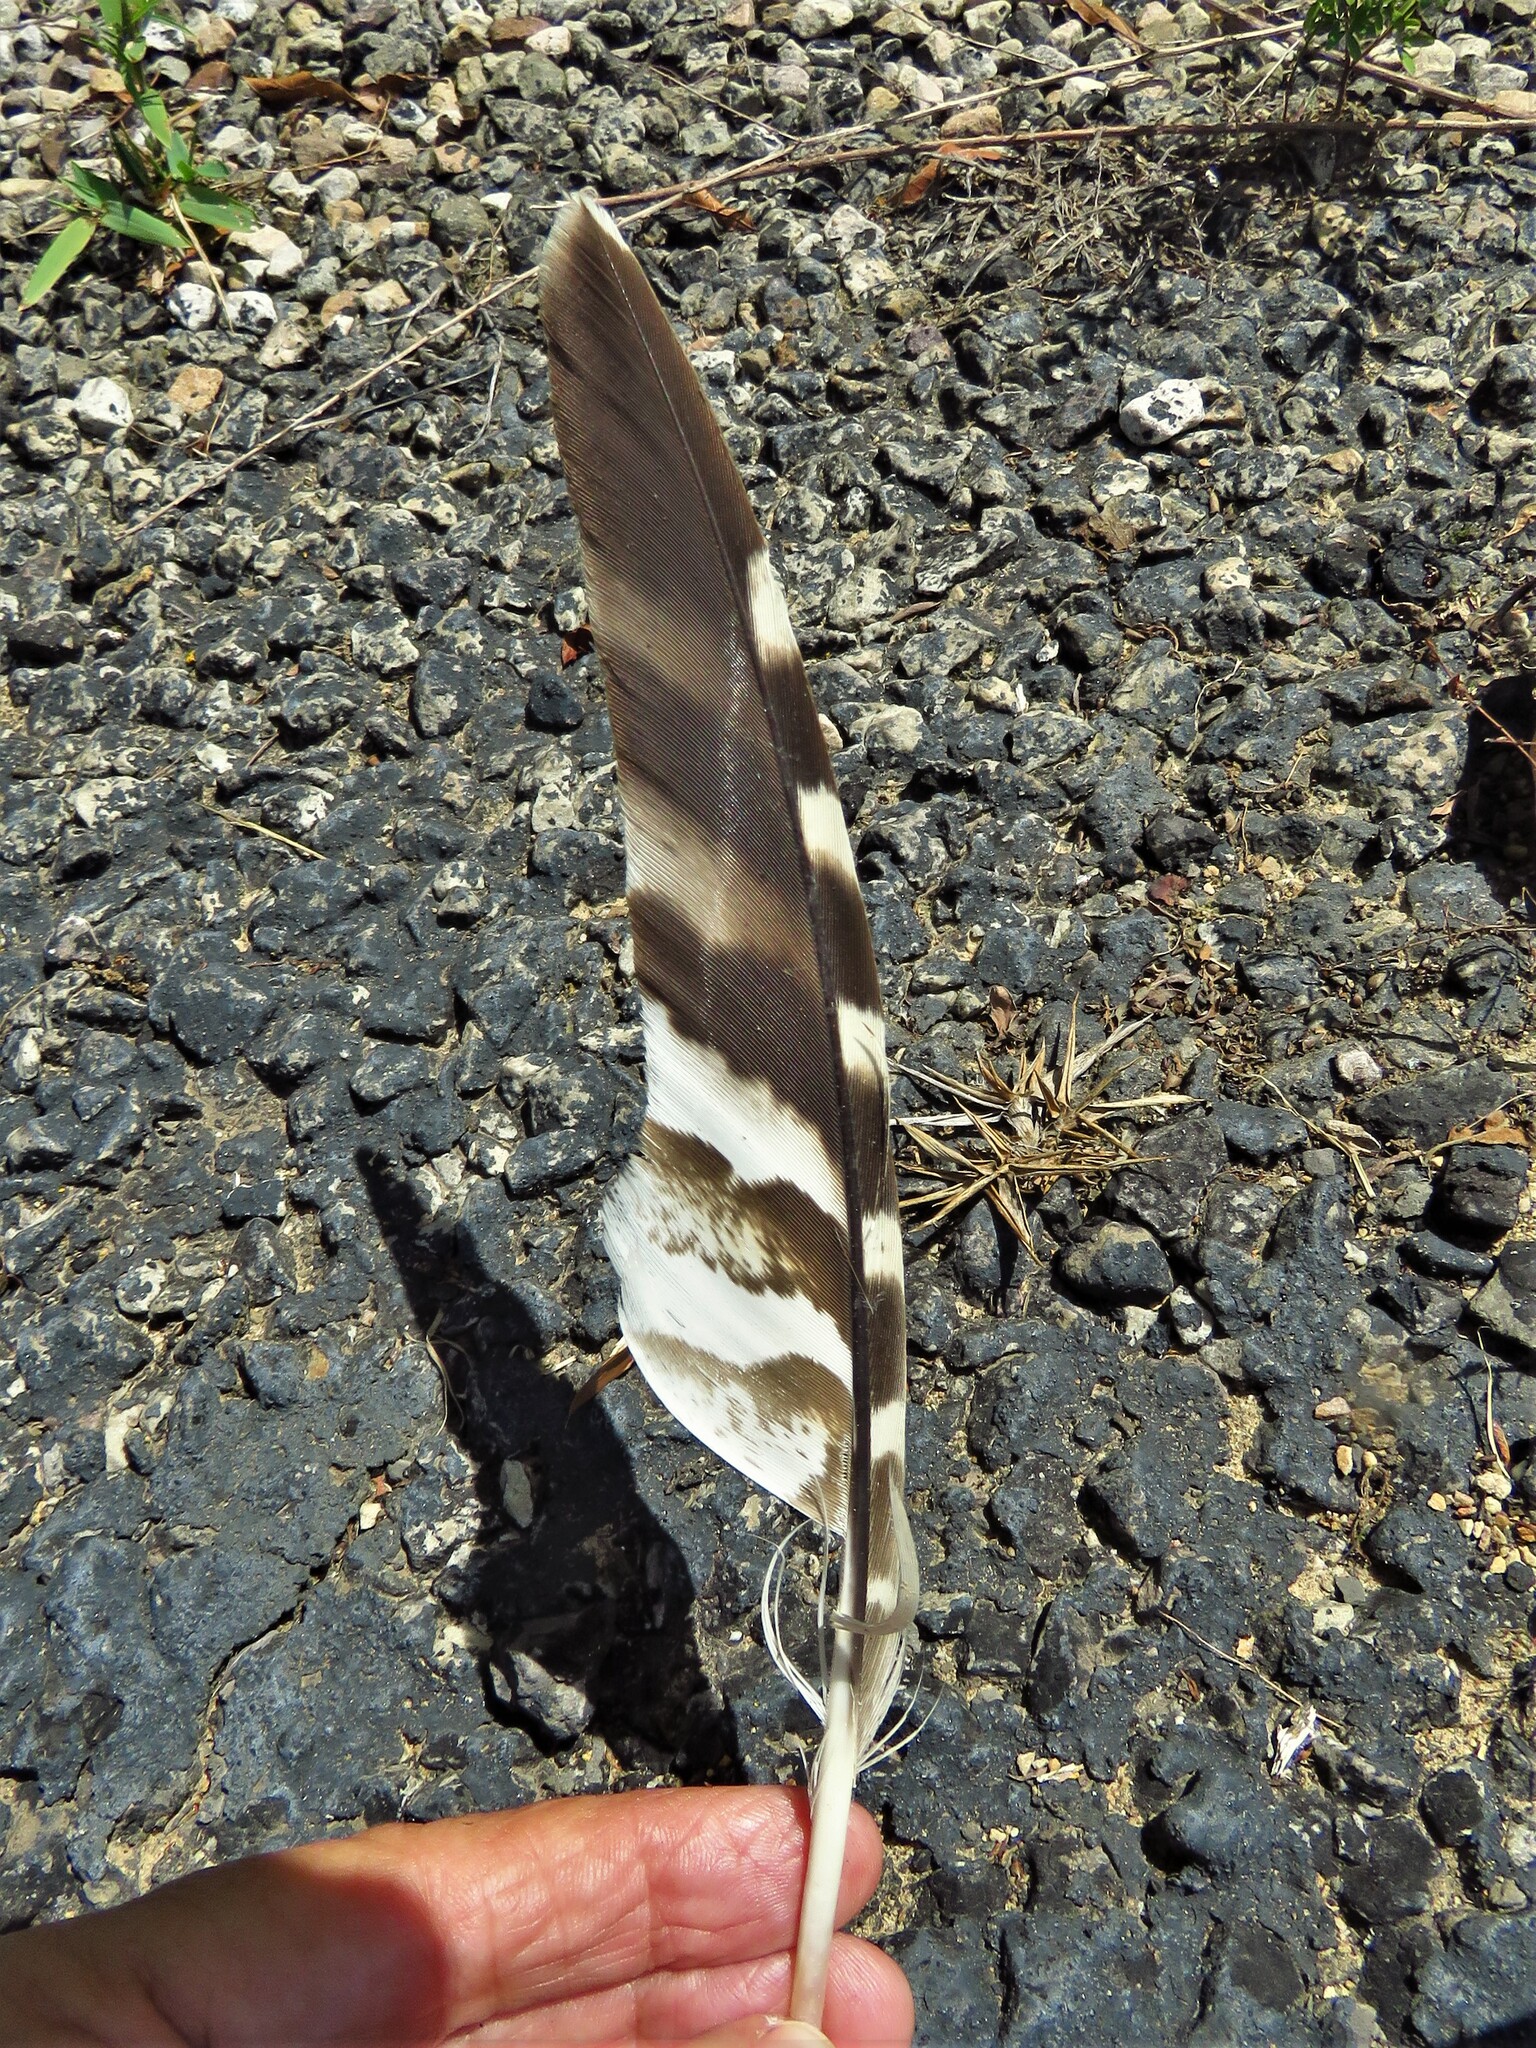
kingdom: Animalia
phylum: Chordata
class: Aves
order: Accipitriformes
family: Accipitridae
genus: Buteo
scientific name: Buteo lineatus
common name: Red-shouldered hawk
